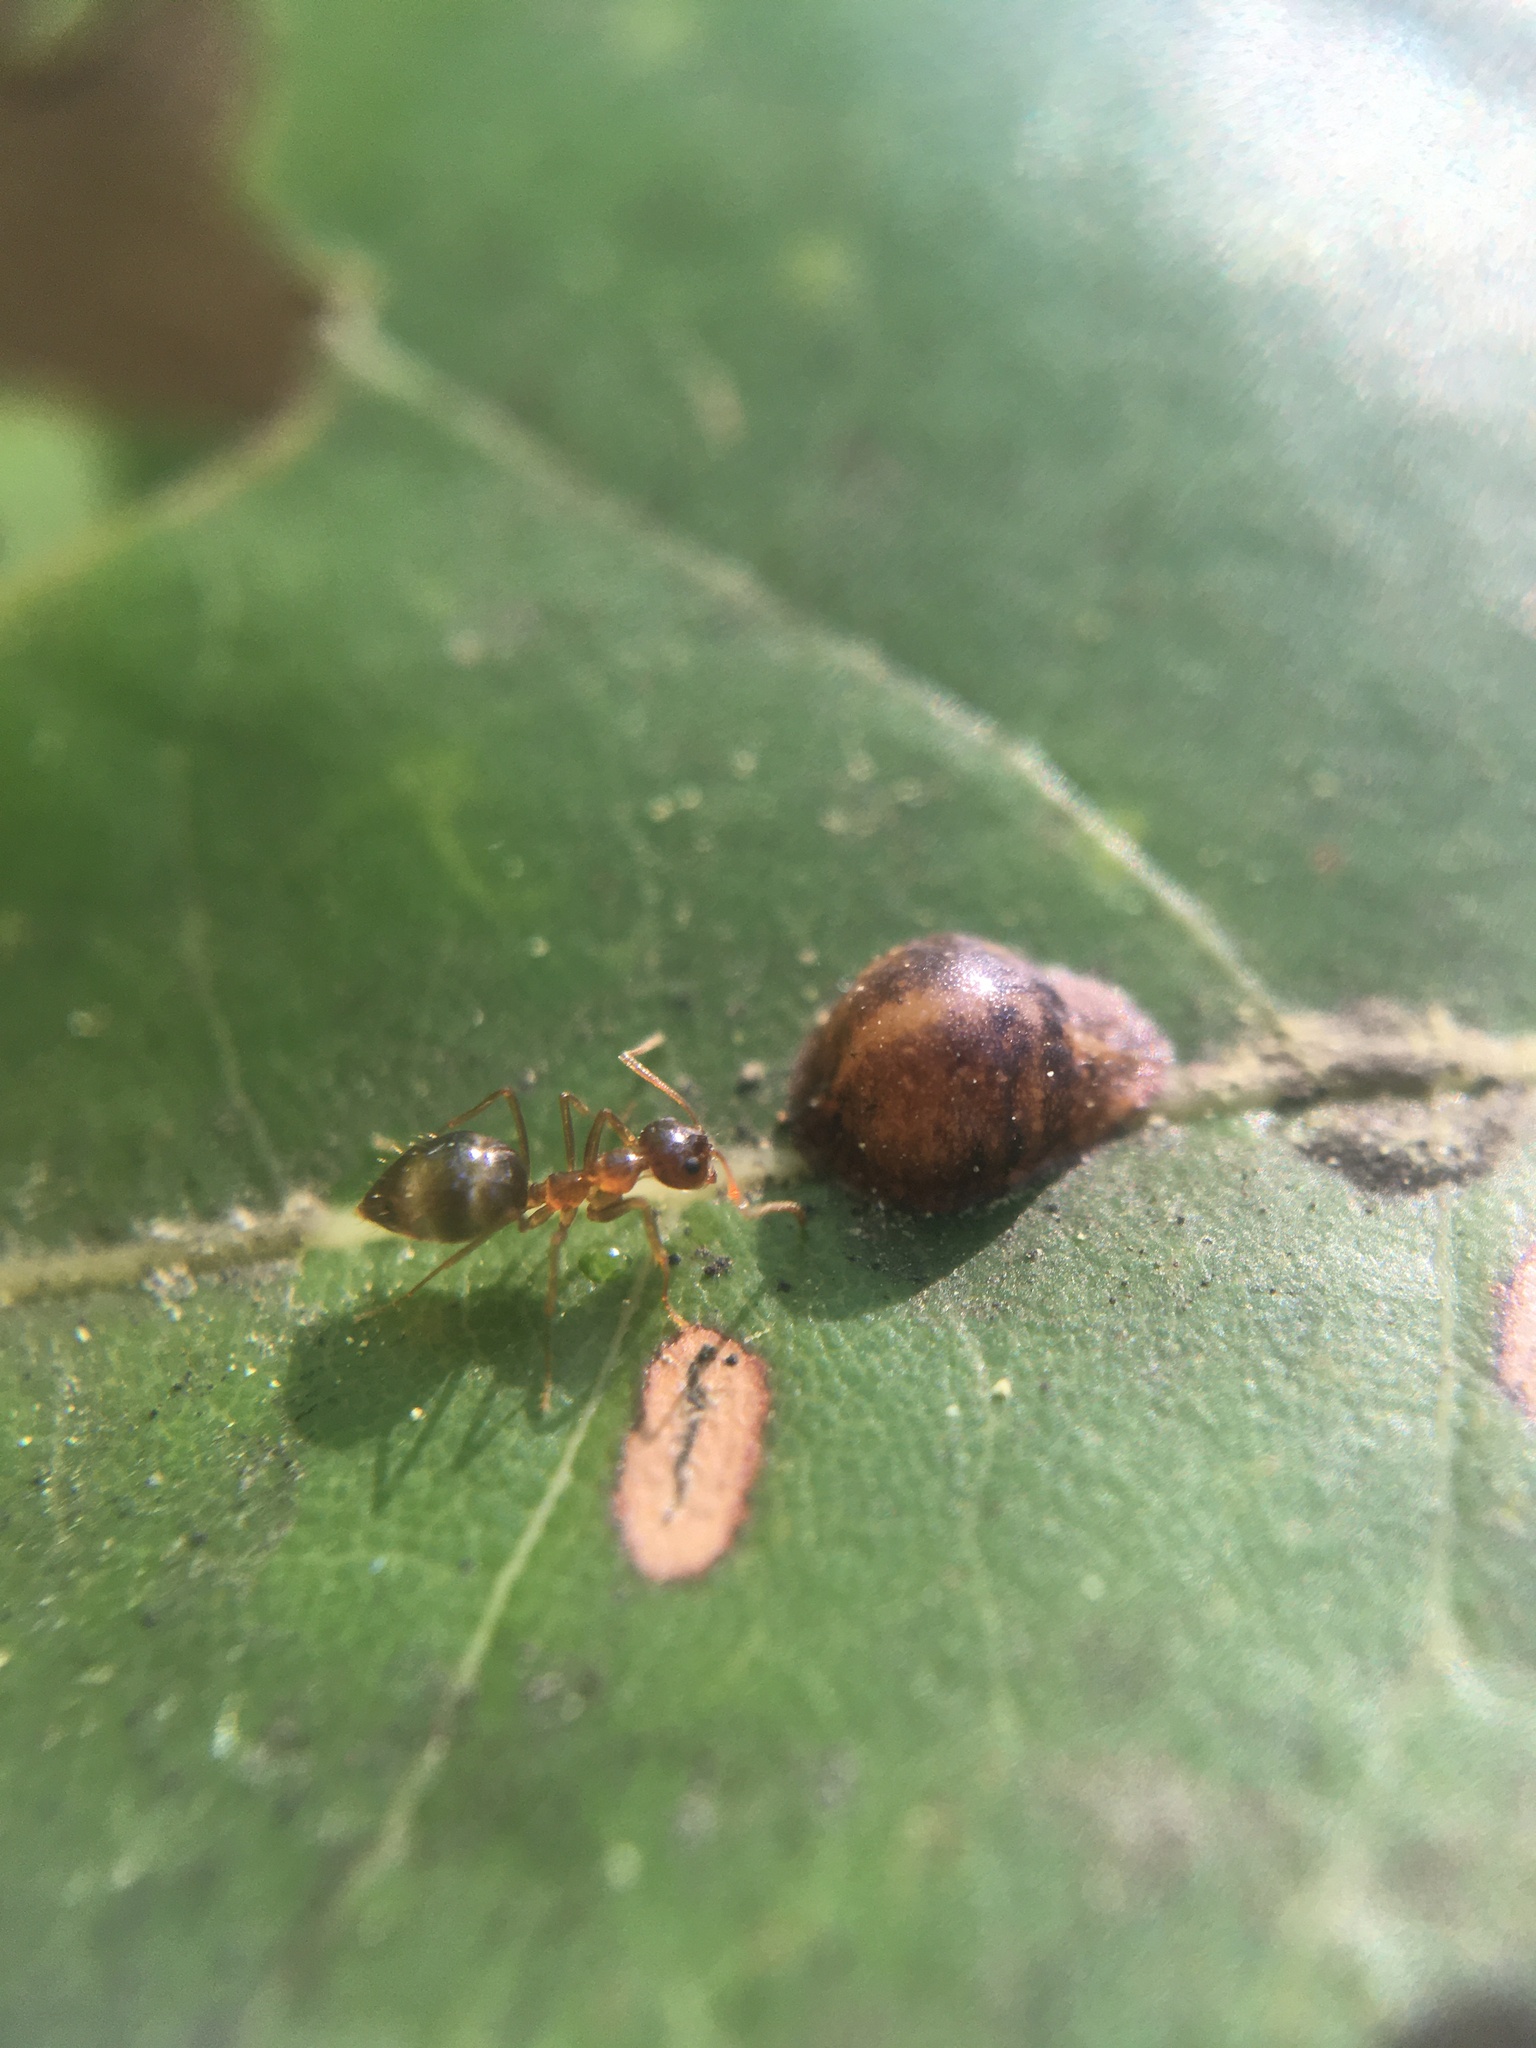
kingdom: Animalia
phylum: Arthropoda
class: Insecta
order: Hymenoptera
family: Formicidae
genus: Prenolepis
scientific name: Prenolepis imparis
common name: Small honey ant
